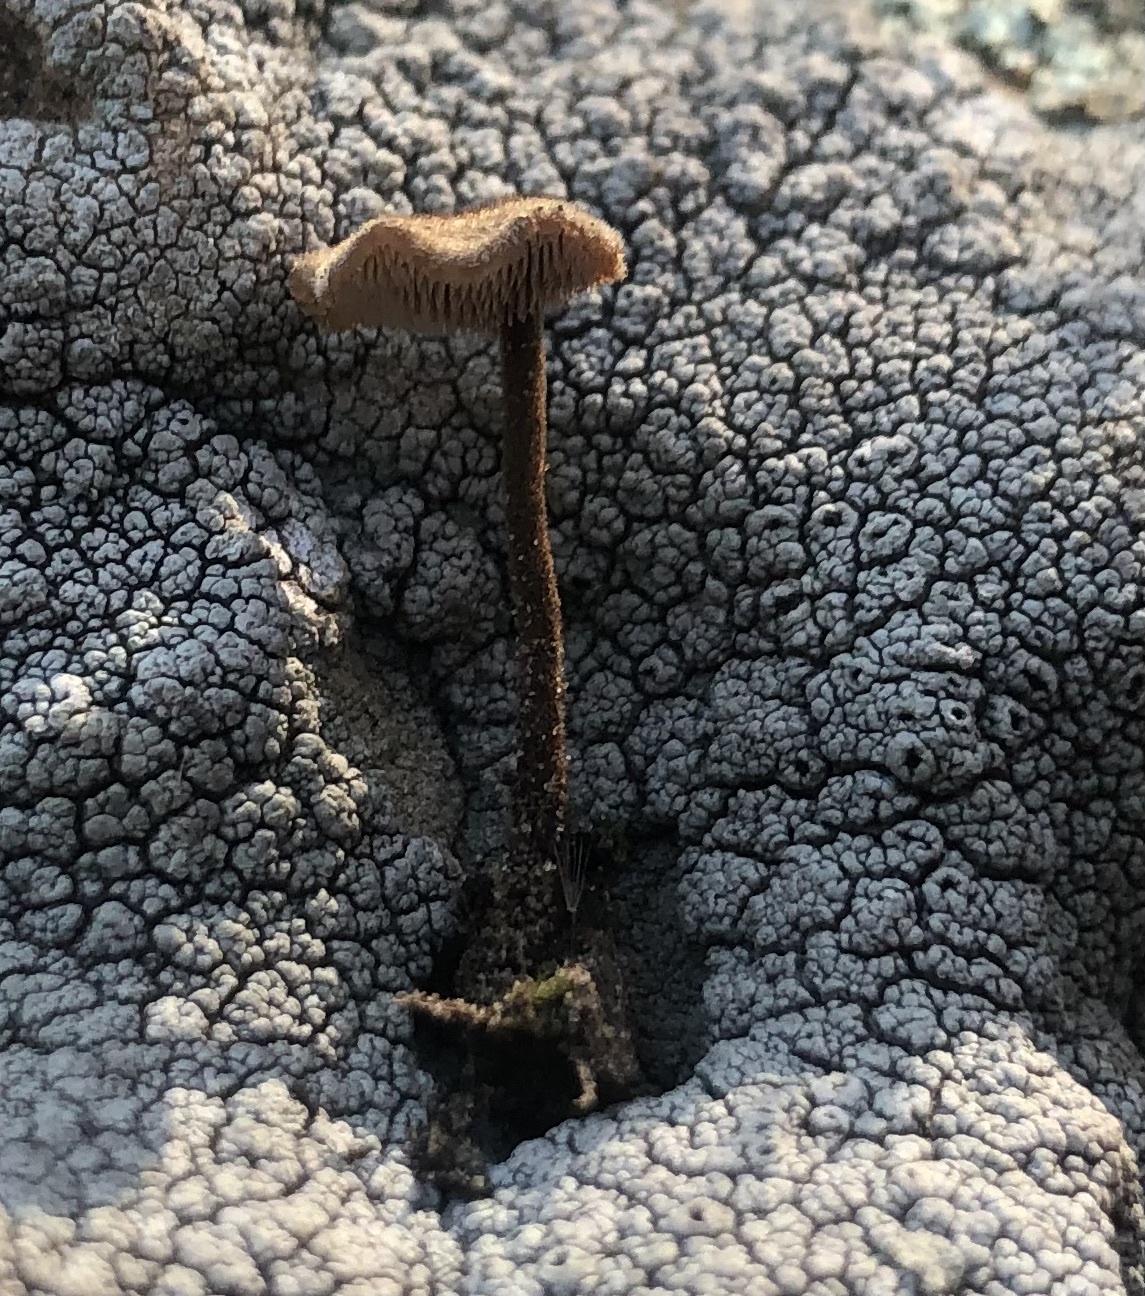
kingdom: Fungi
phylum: Basidiomycota
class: Agaricomycetes
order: Russulales
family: Auriscalpiaceae
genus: Auriscalpium
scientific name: Auriscalpium vulgare
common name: Earpick fungus
